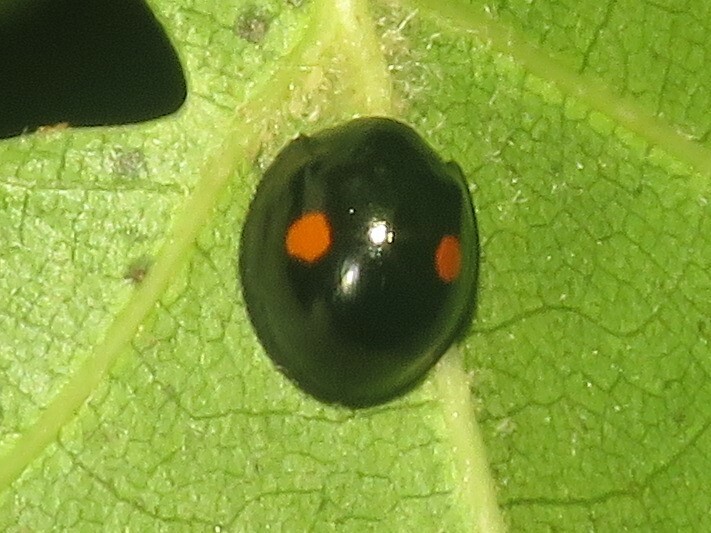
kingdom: Animalia
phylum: Arthropoda
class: Insecta
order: Coleoptera
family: Coccinellidae
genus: Chilocorus
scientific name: Chilocorus stigma
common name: Twicestabbed lady beetle
